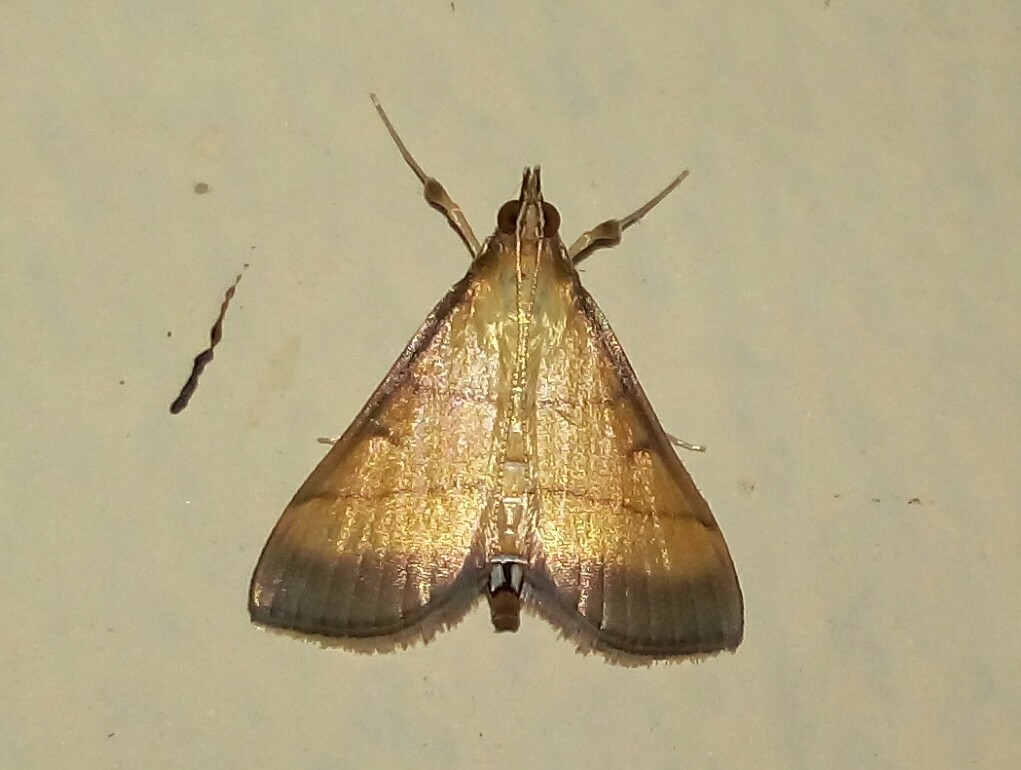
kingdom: Animalia
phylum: Arthropoda
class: Insecta
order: Lepidoptera
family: Crambidae
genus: Cnaphalocrocis
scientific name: Cnaphalocrocis medinalis
